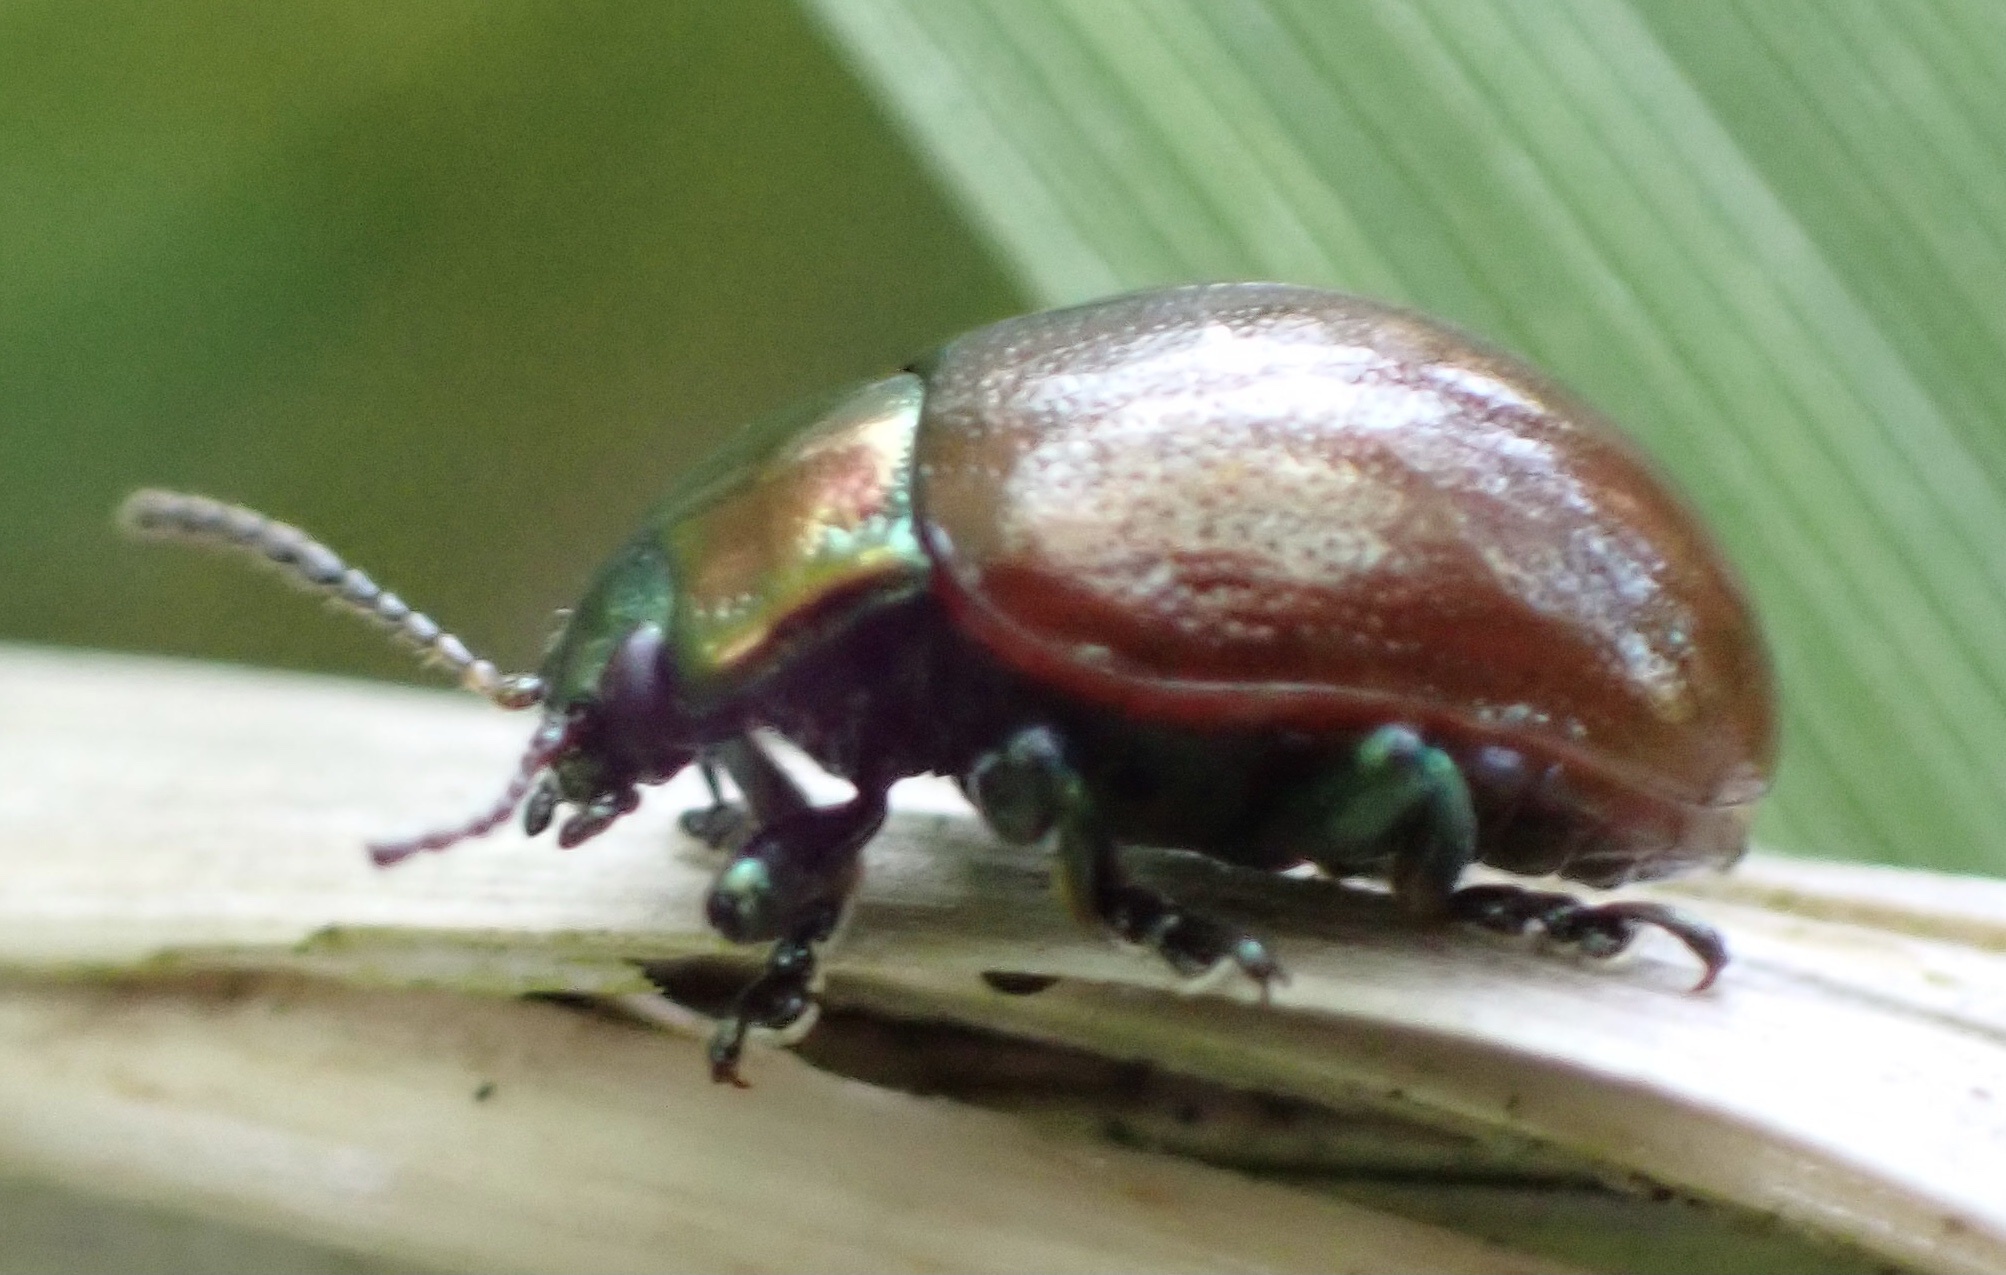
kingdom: Animalia
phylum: Arthropoda
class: Insecta
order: Coleoptera
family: Chrysomelidae
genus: Chrysomela
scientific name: Chrysomela polita
